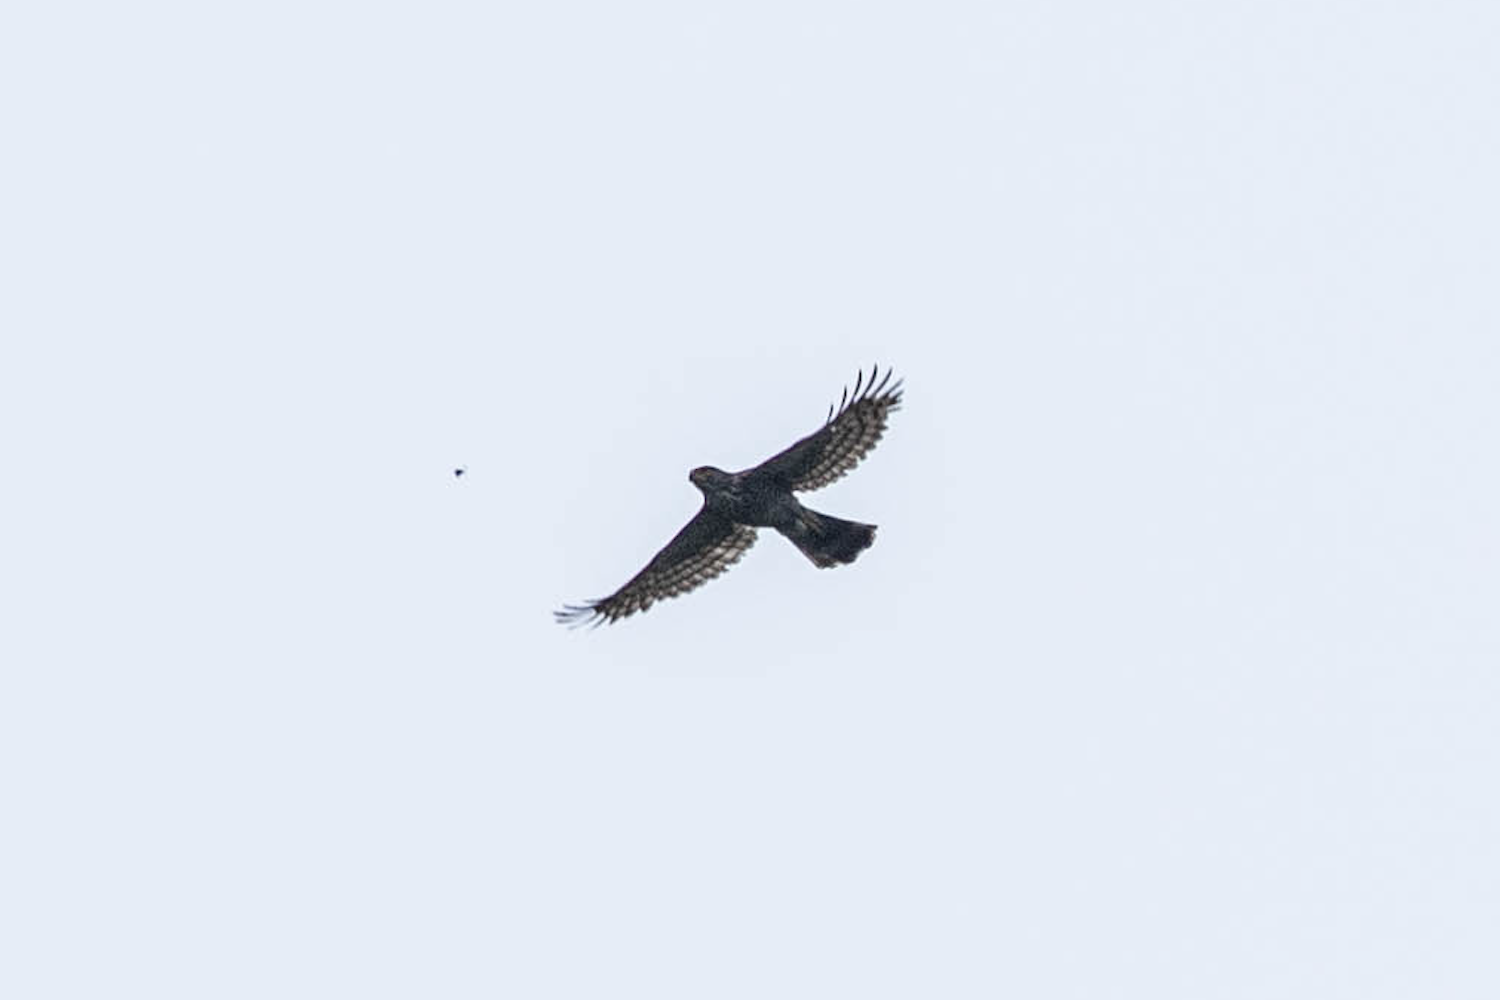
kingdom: Animalia
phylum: Chordata
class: Aves
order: Accipitriformes
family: Accipitridae
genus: Accipiter
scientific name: Accipiter trivirgatus
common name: Crested goshawk
